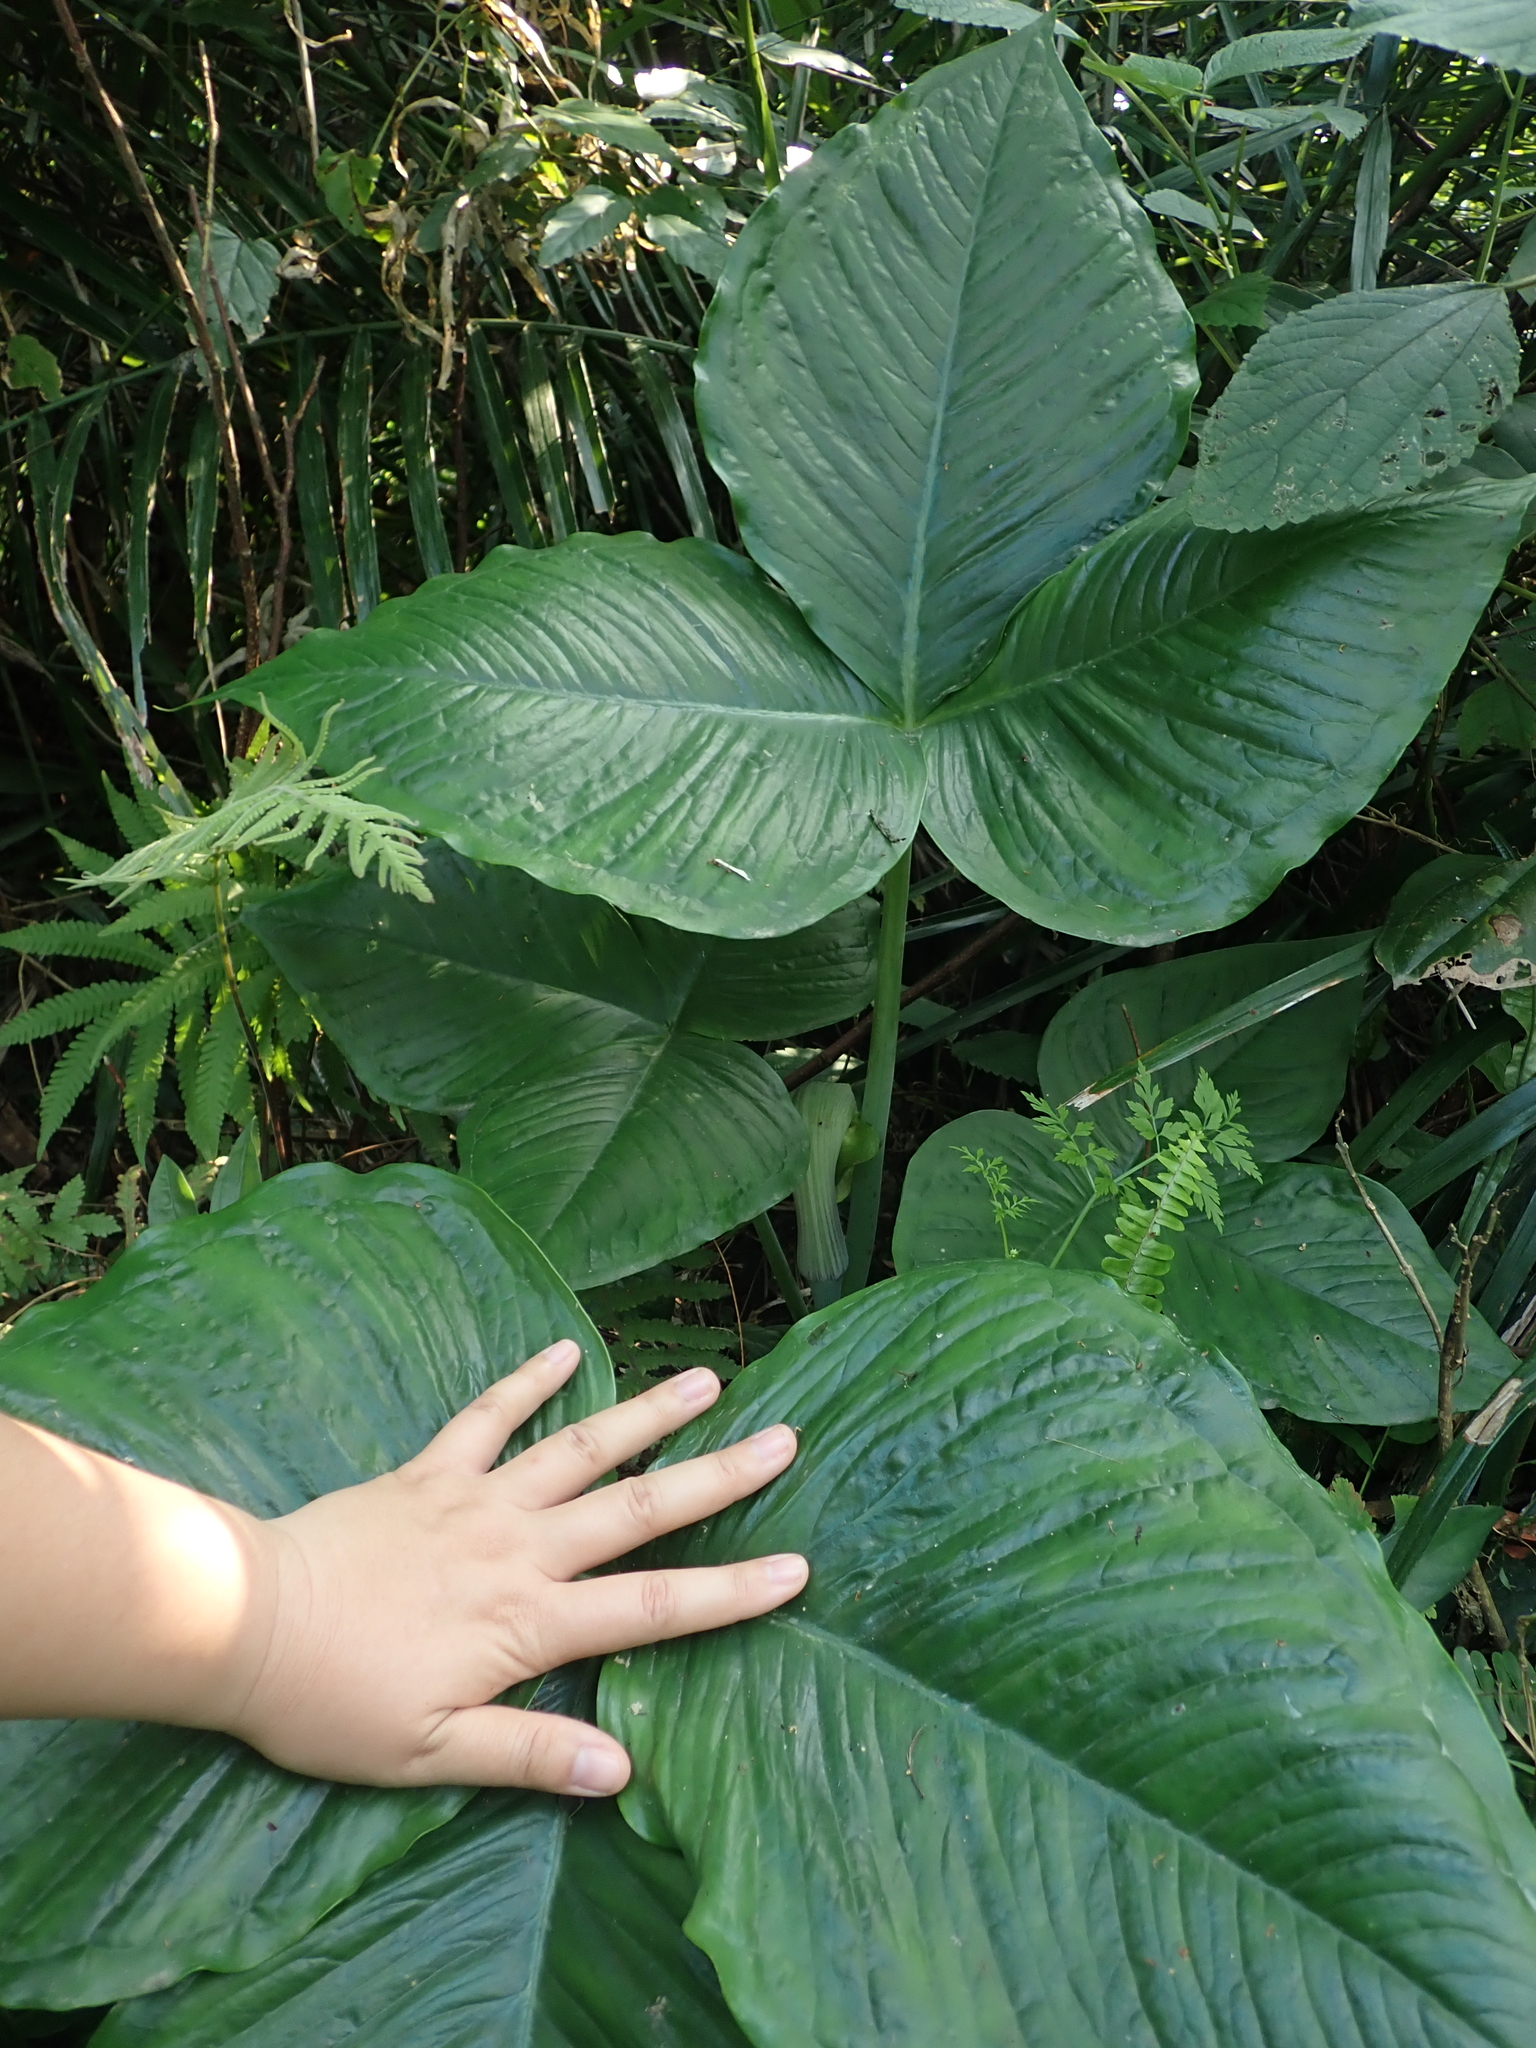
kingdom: Plantae
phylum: Tracheophyta
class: Liliopsida
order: Alismatales
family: Araceae
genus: Arisaema
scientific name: Arisaema ringens
